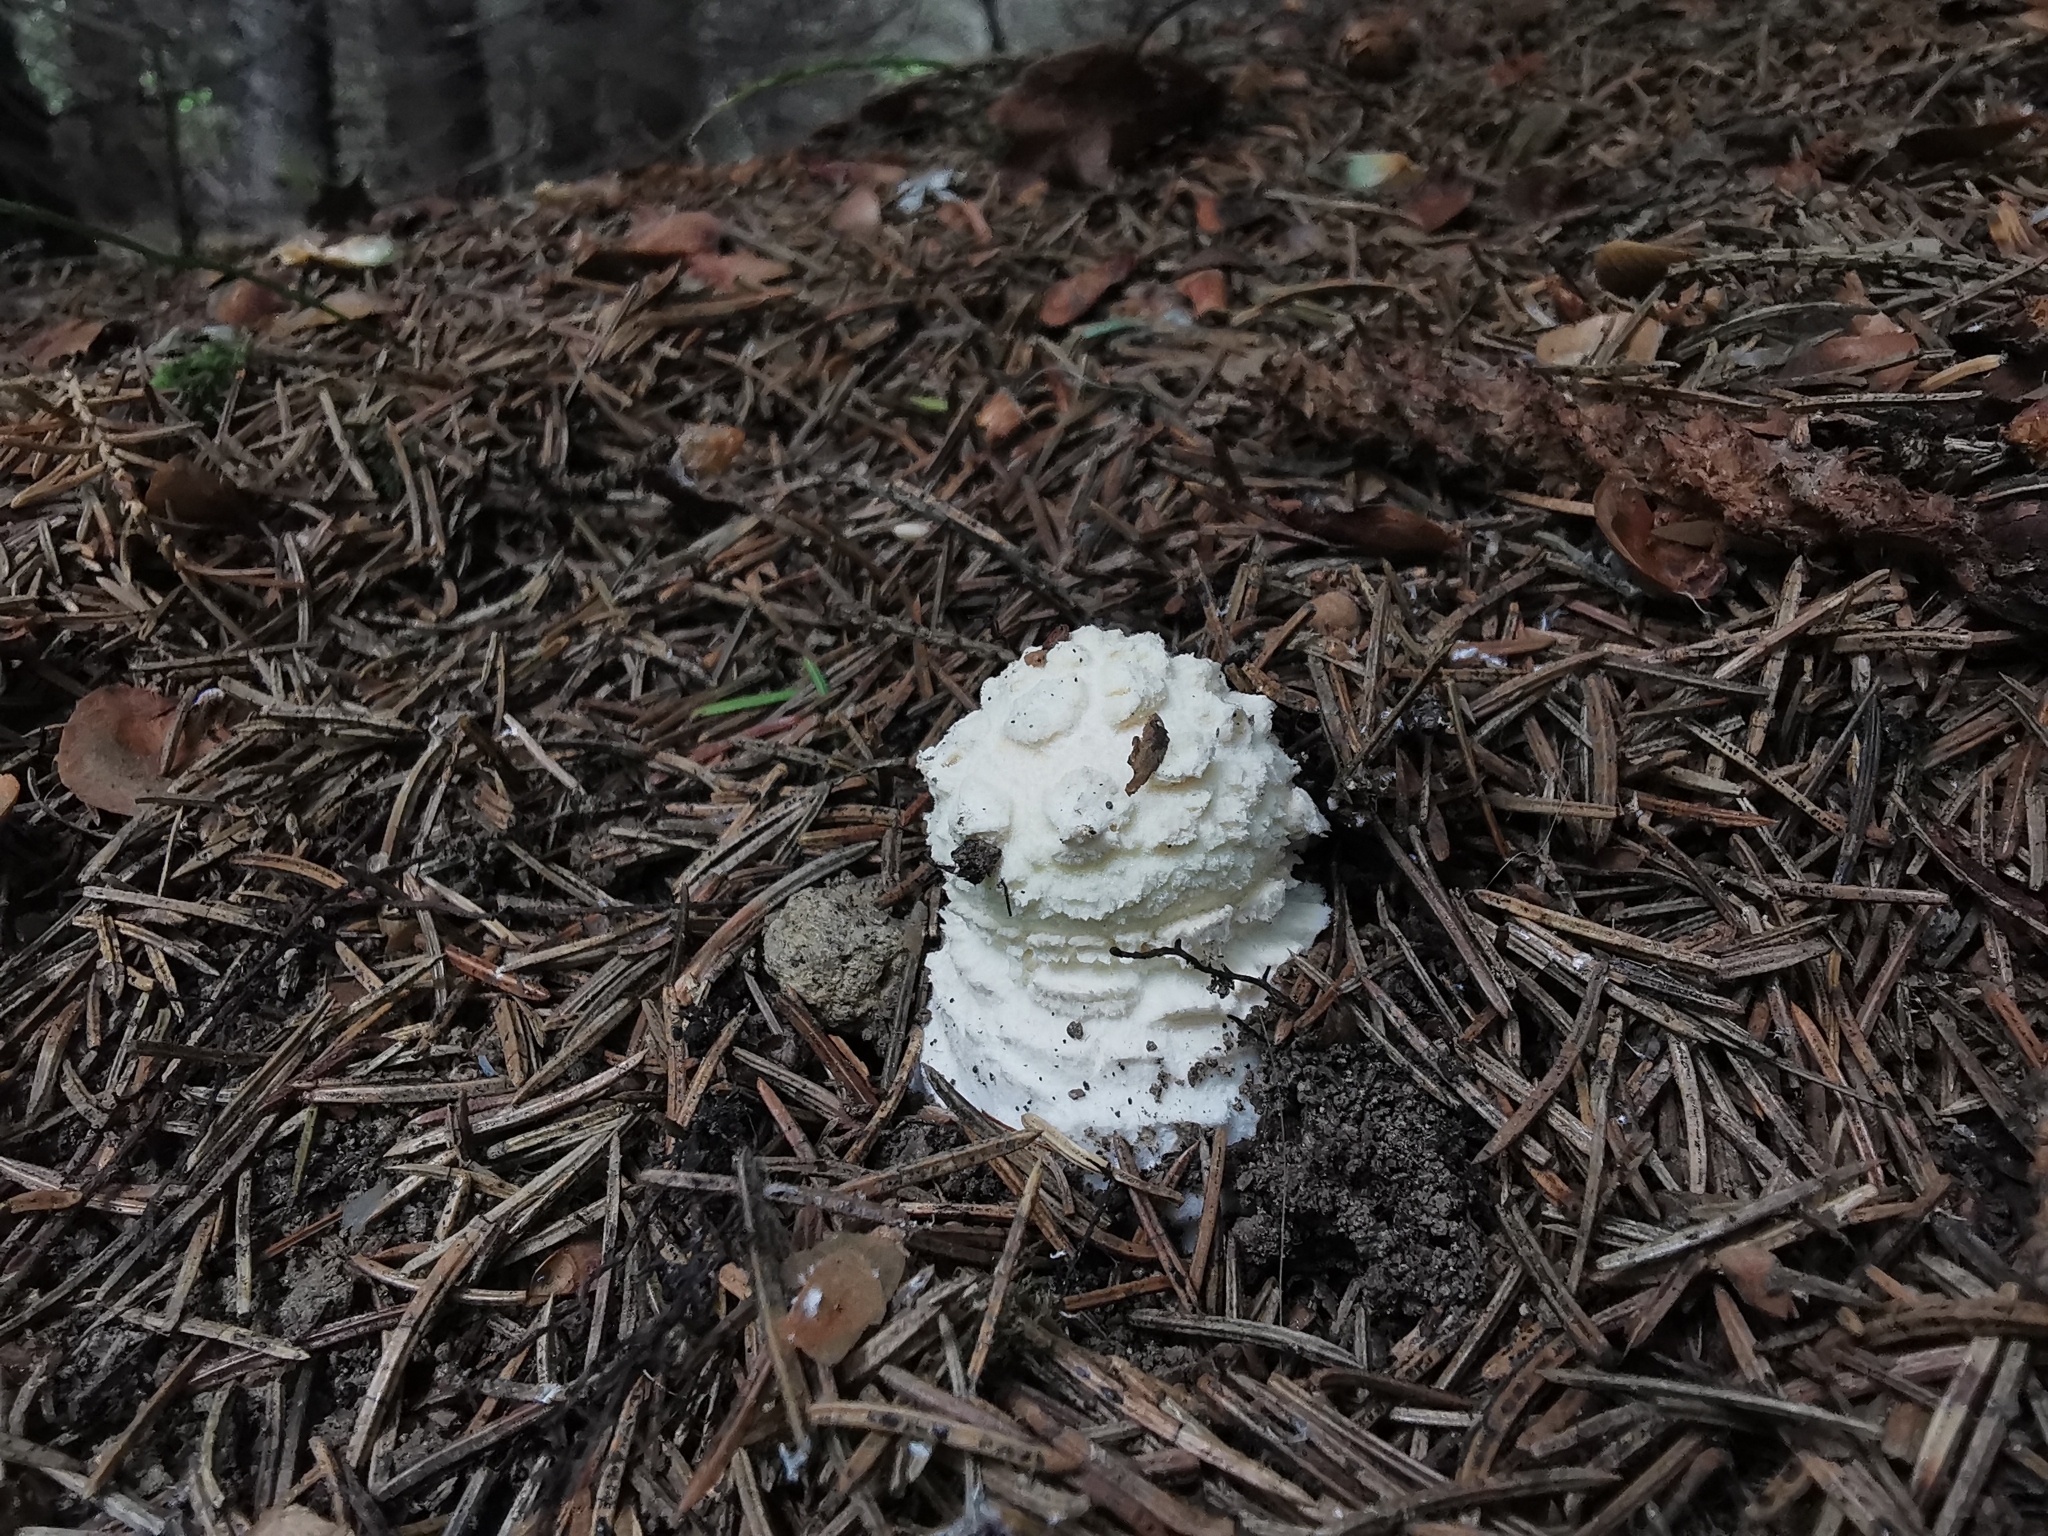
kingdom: Fungi
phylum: Basidiomycota
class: Agaricomycetes
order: Agaricales
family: Amanitaceae
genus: Amanita
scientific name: Amanita muscaria
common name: Fly agaric
